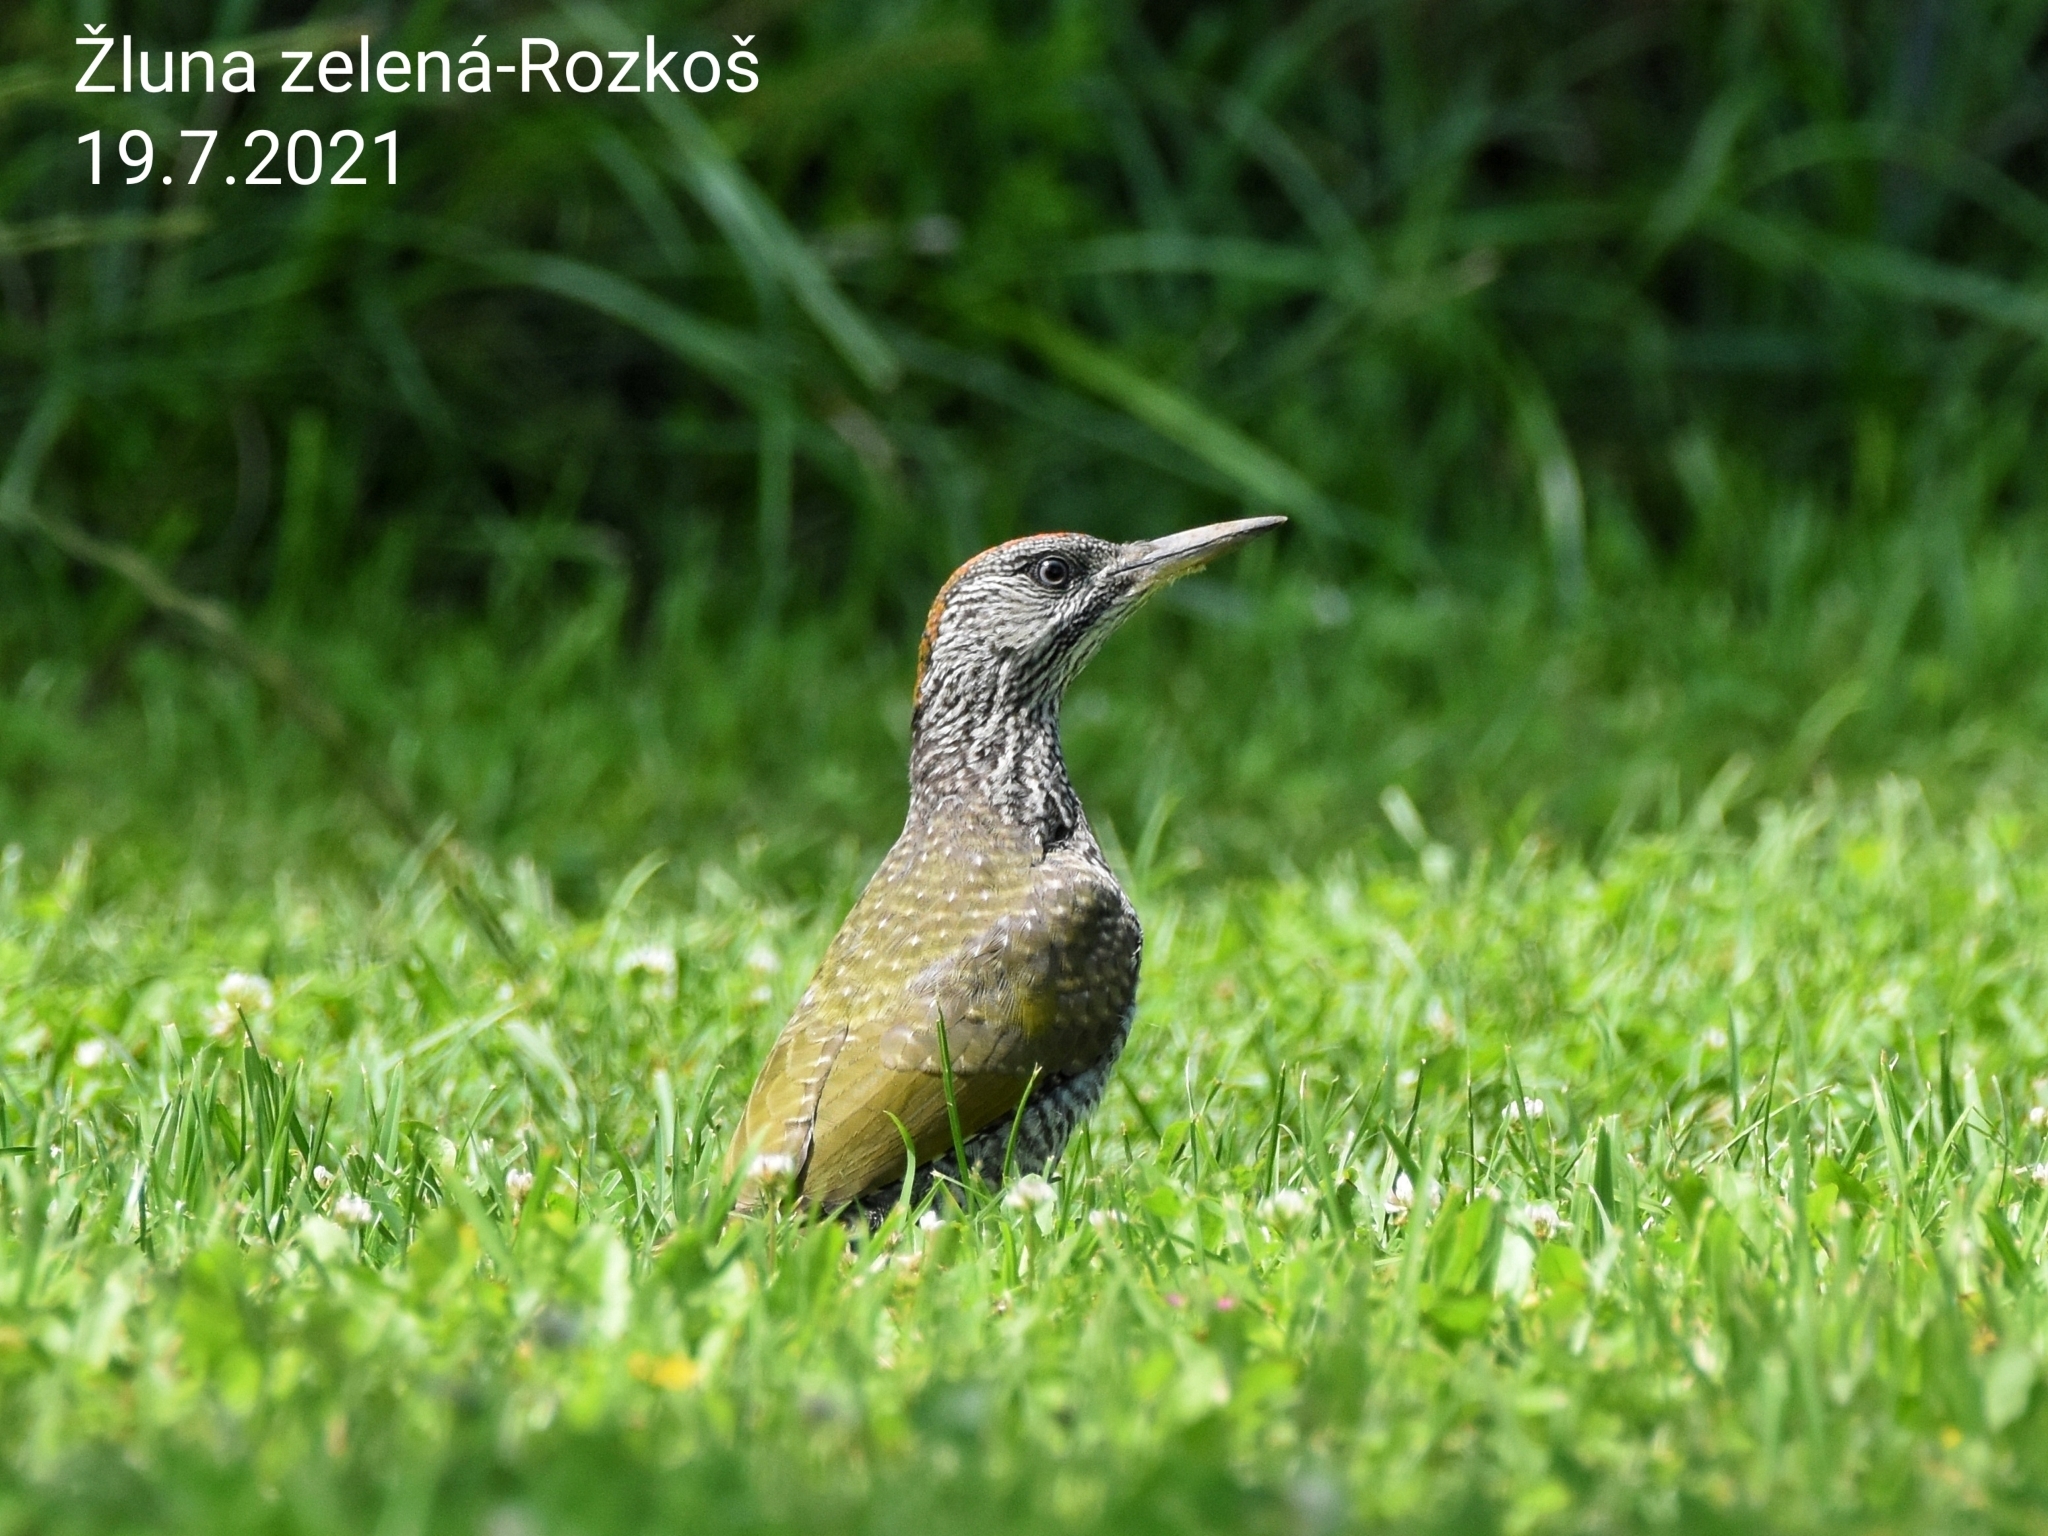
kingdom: Animalia
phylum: Chordata
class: Aves
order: Piciformes
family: Picidae
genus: Picus
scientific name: Picus viridis
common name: European green woodpecker
